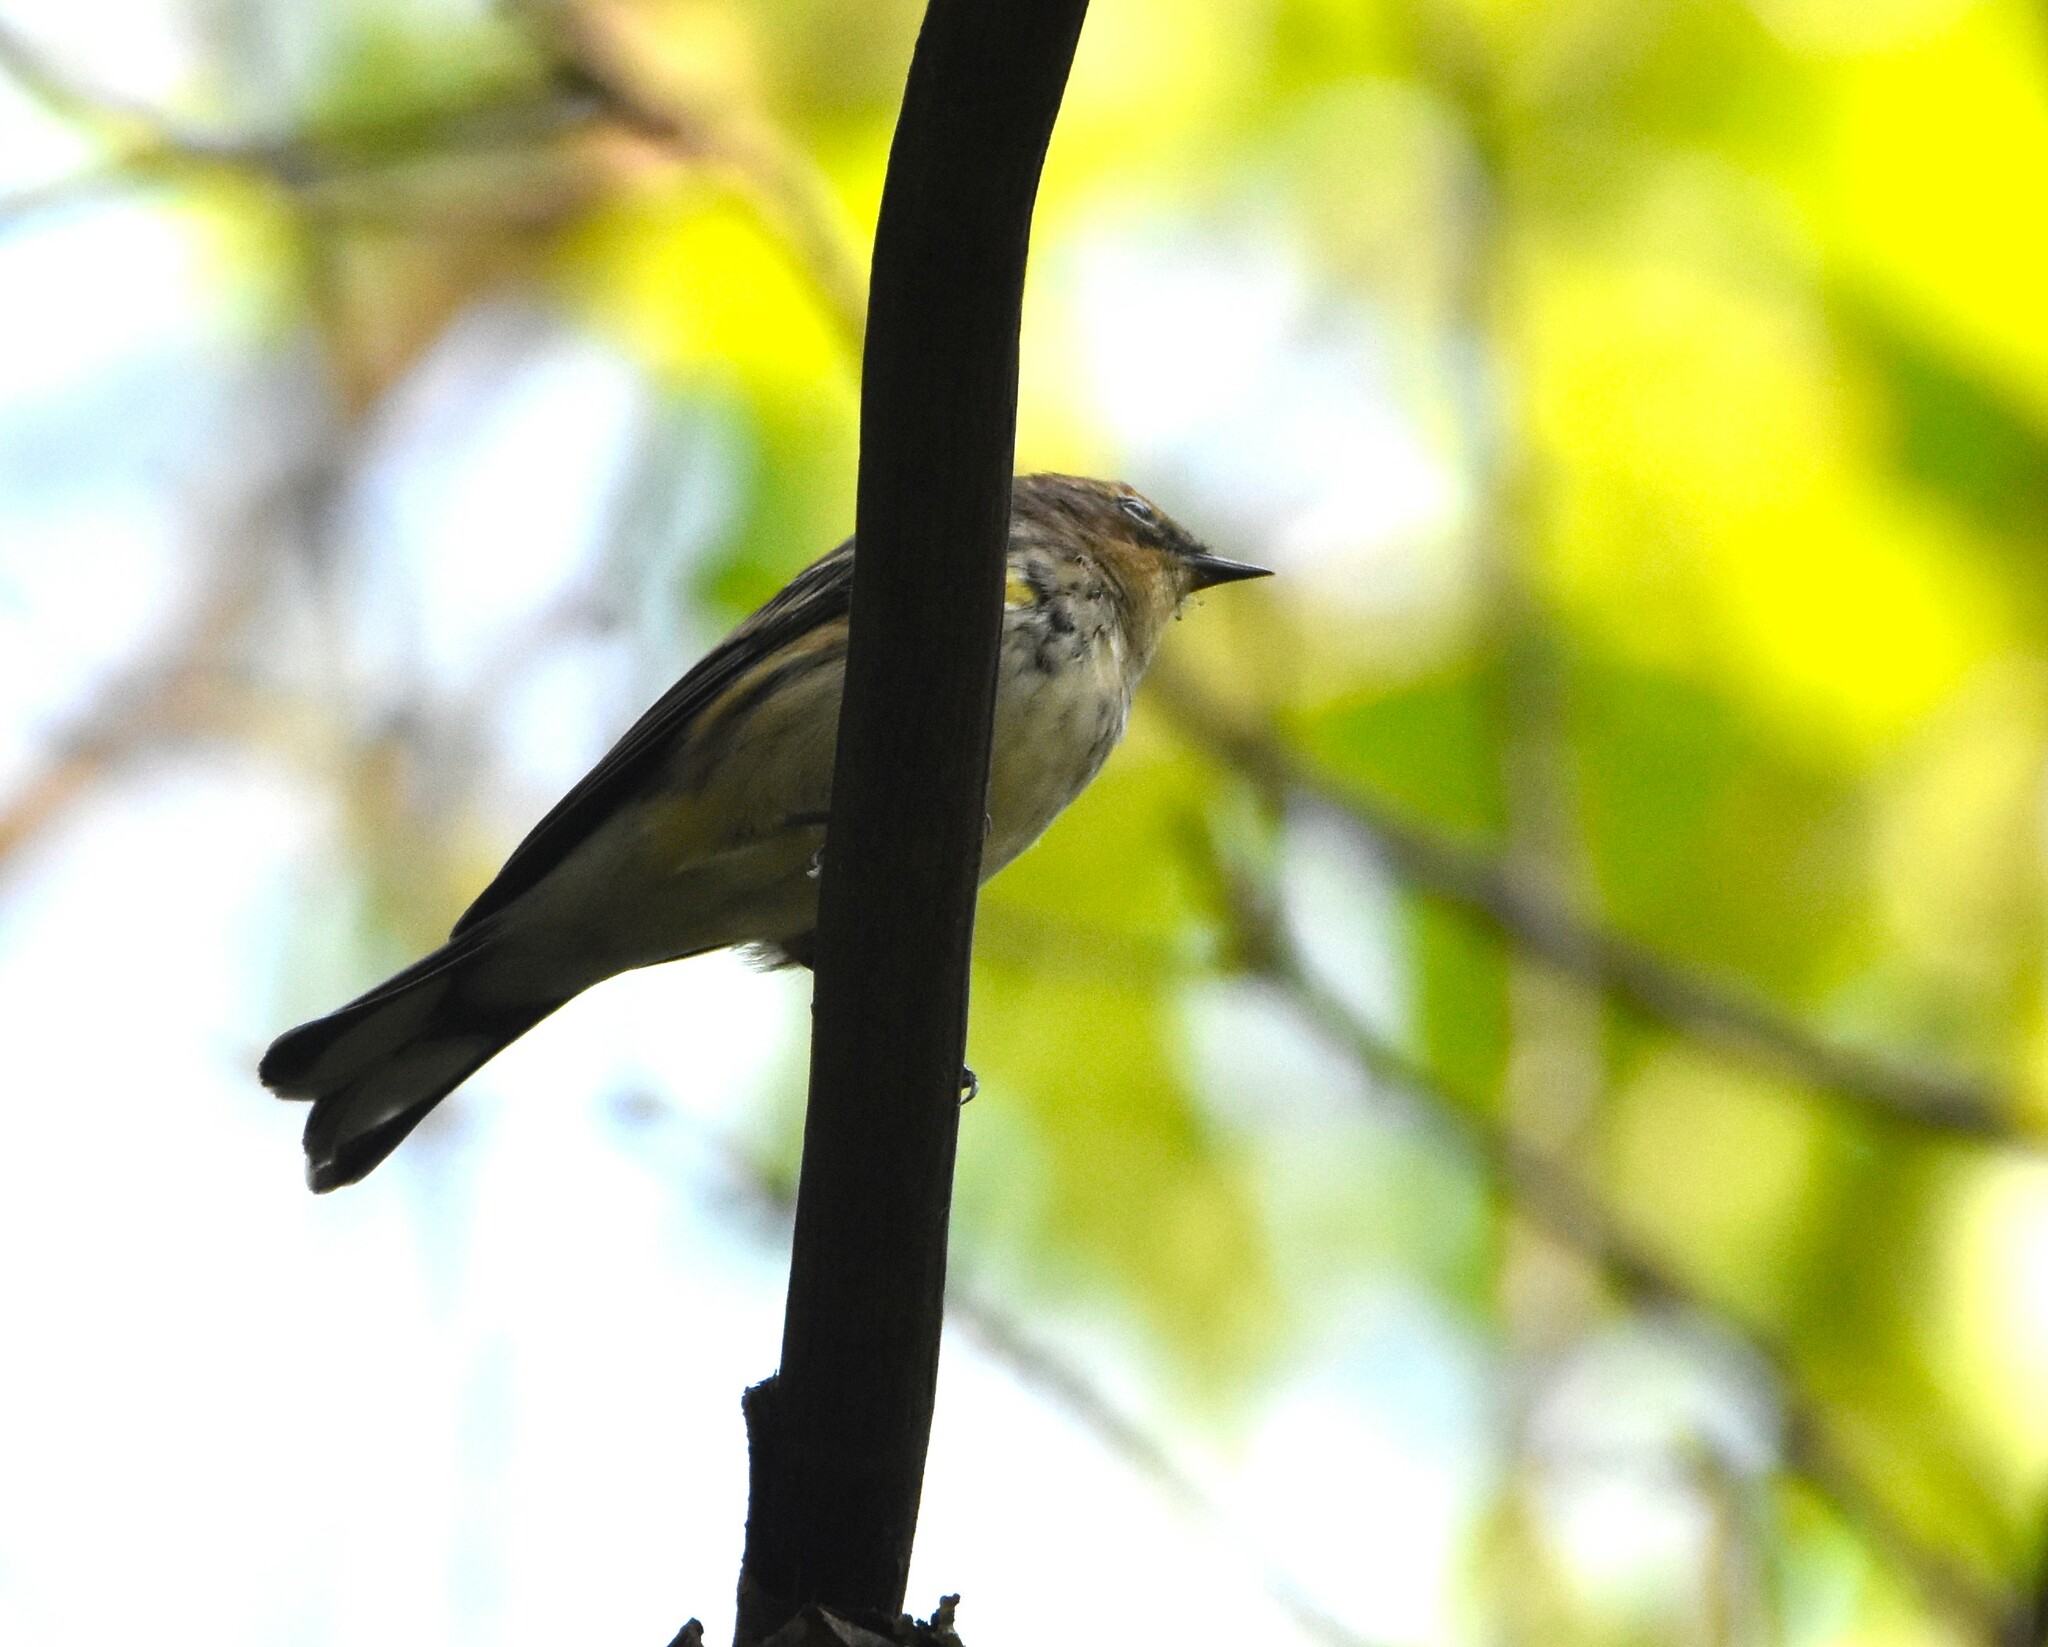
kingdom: Animalia
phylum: Chordata
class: Aves
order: Passeriformes
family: Parulidae
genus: Setophaga
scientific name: Setophaga coronata
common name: Myrtle warbler
